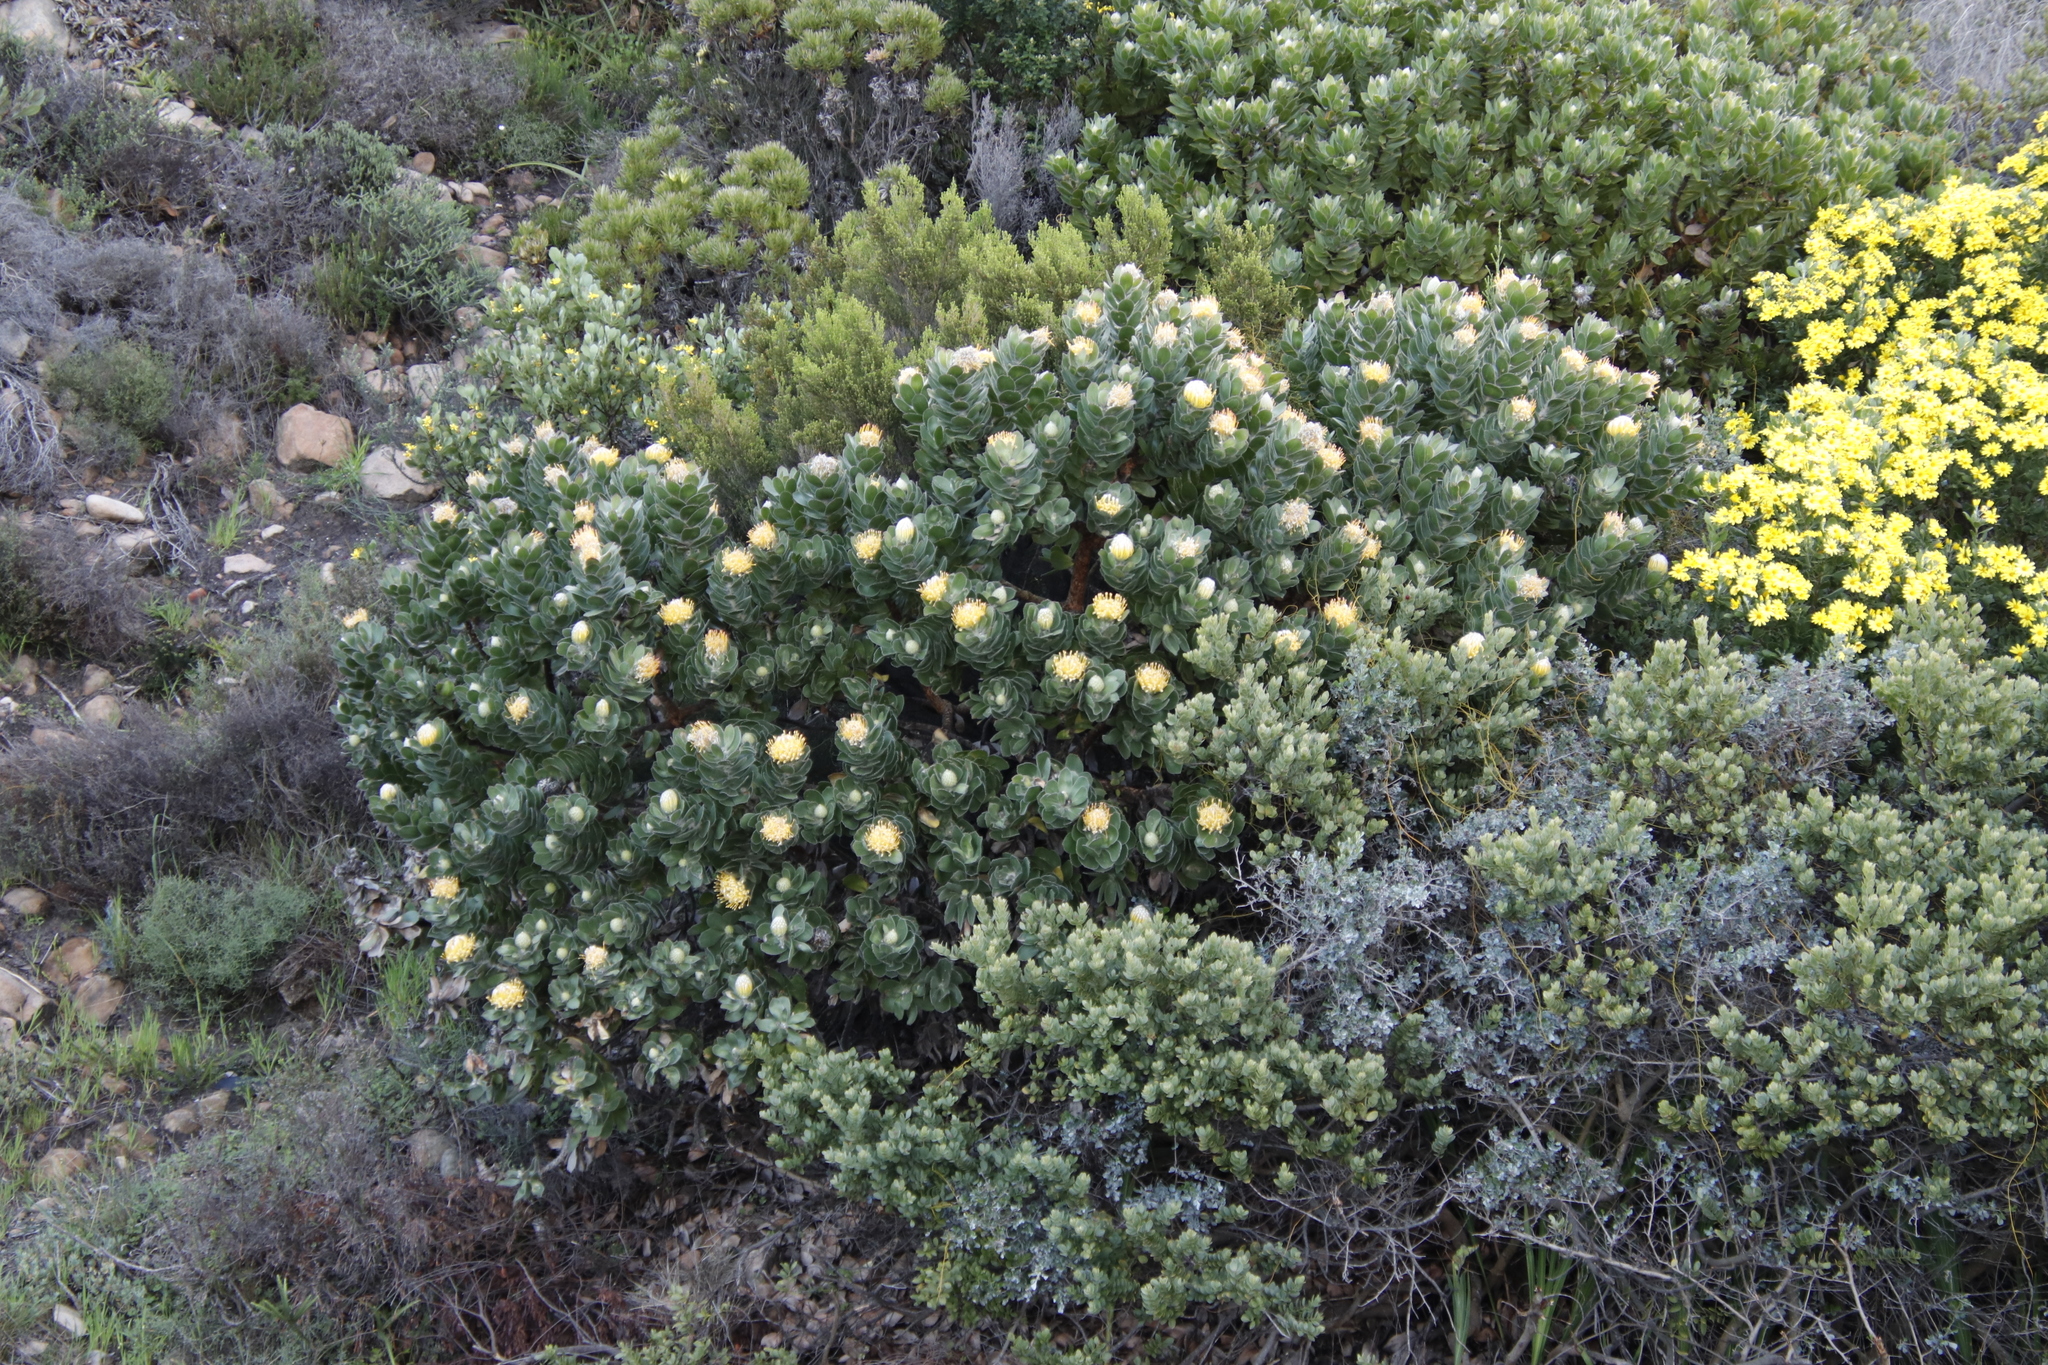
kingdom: Plantae
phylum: Tracheophyta
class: Magnoliopsida
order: Proteales
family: Proteaceae
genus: Leucospermum
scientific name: Leucospermum conocarpodendron
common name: Tree pincushion
